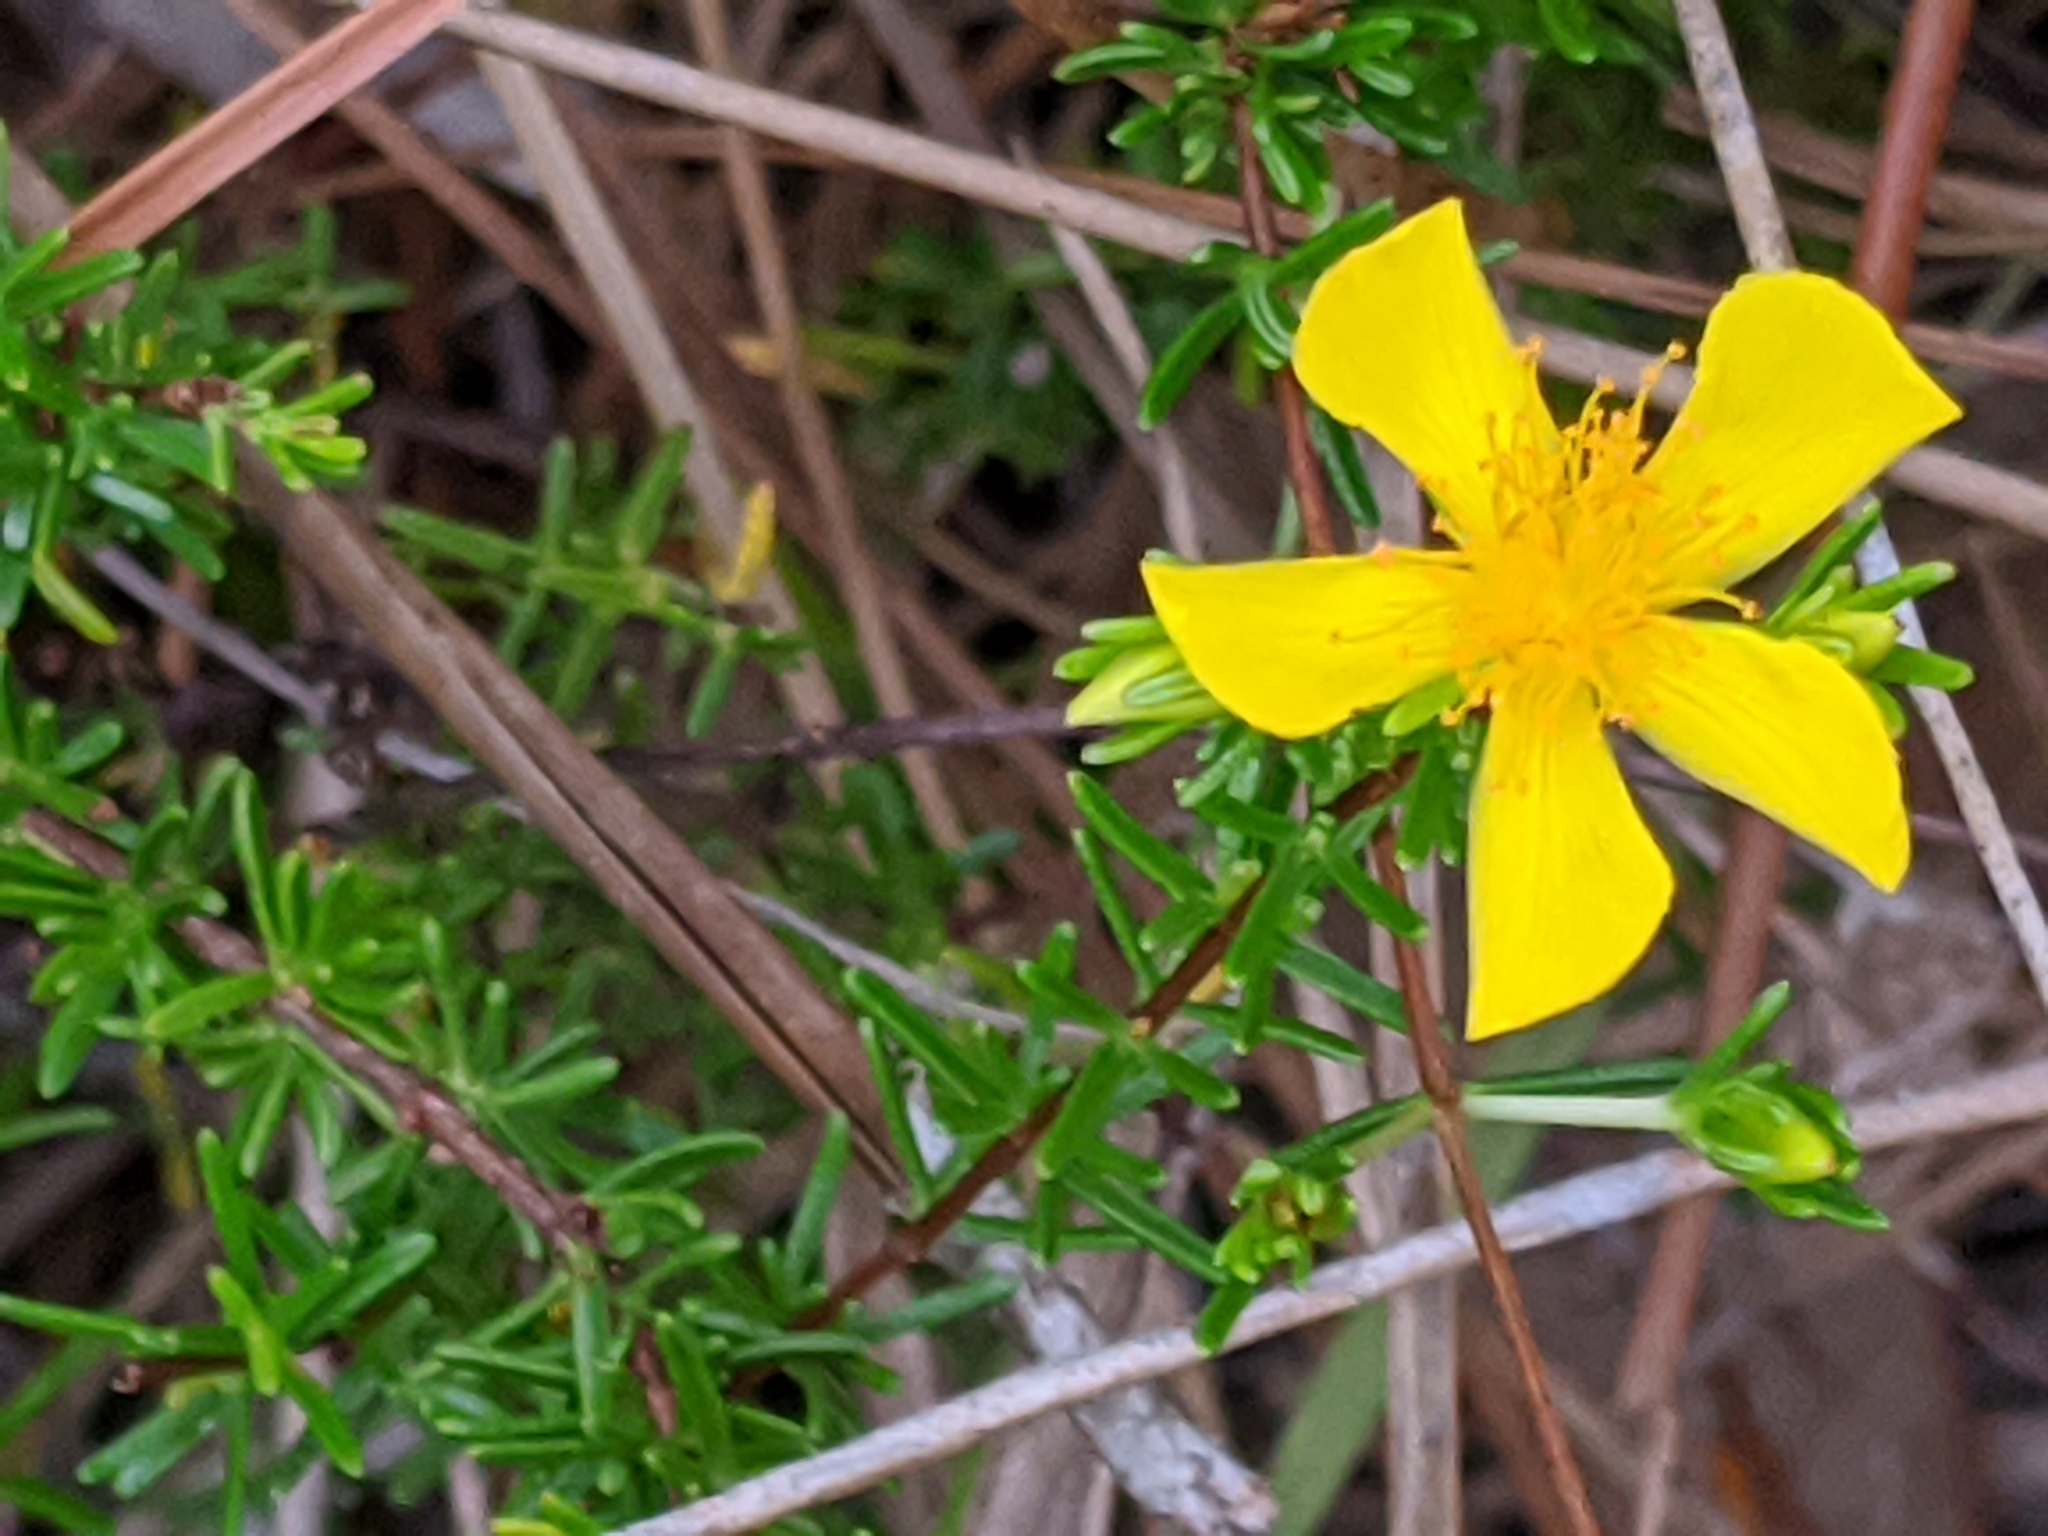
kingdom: Plantae
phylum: Tracheophyta
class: Magnoliopsida
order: Malpighiales
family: Hypericaceae
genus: Hypericum
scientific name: Hypericum tenuifolium
